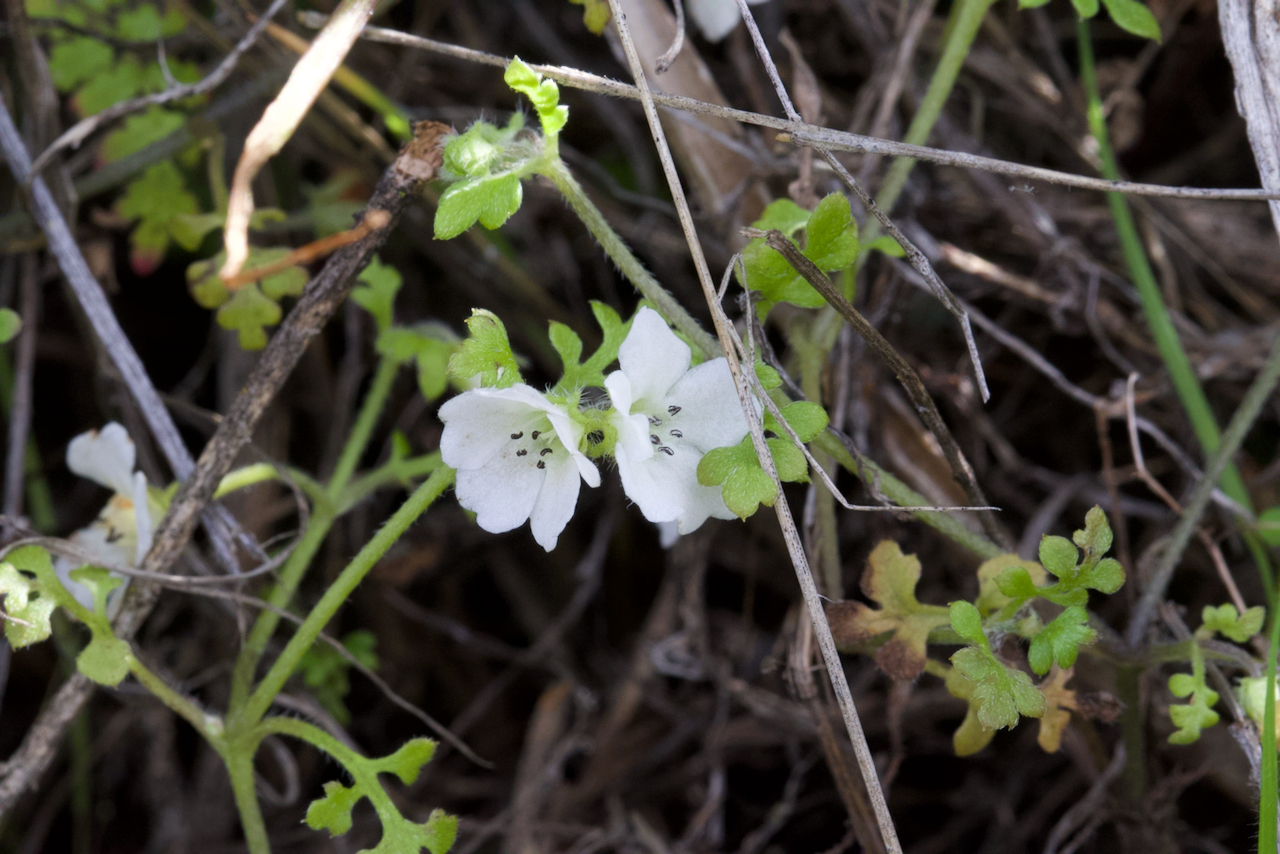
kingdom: Plantae
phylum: Tracheophyta
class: Magnoliopsida
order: Boraginales
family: Hydrophyllaceae
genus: Nemophila
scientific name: Nemophila heterophylla
